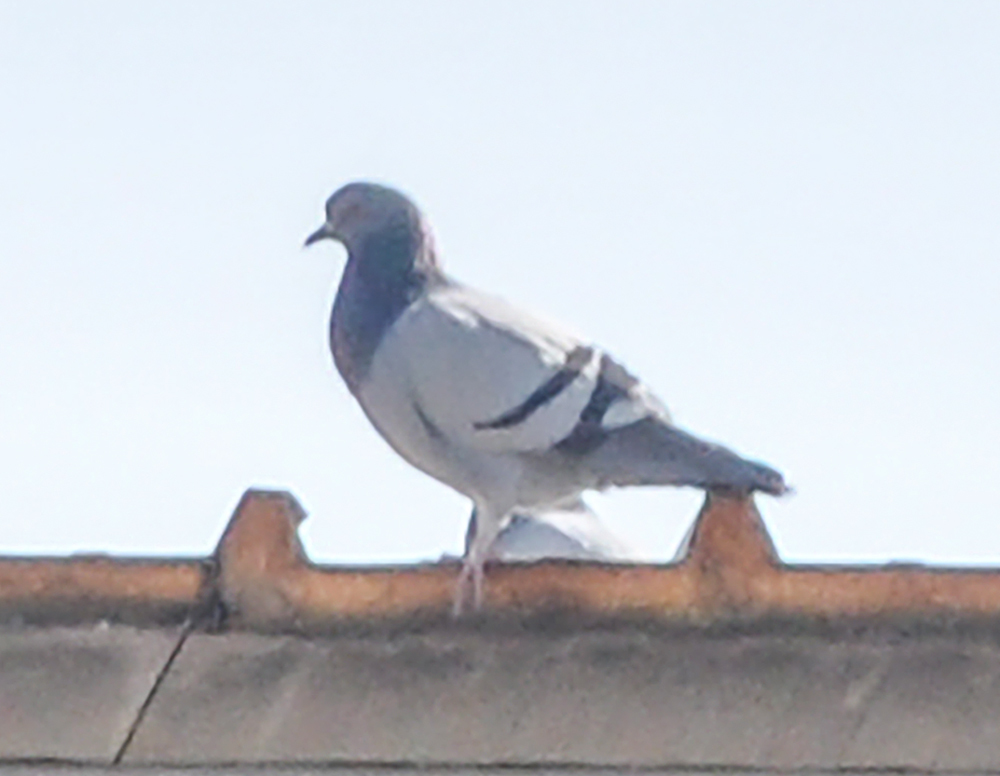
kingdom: Animalia
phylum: Chordata
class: Aves
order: Columbiformes
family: Columbidae
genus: Columba
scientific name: Columba livia
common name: Rock pigeon
